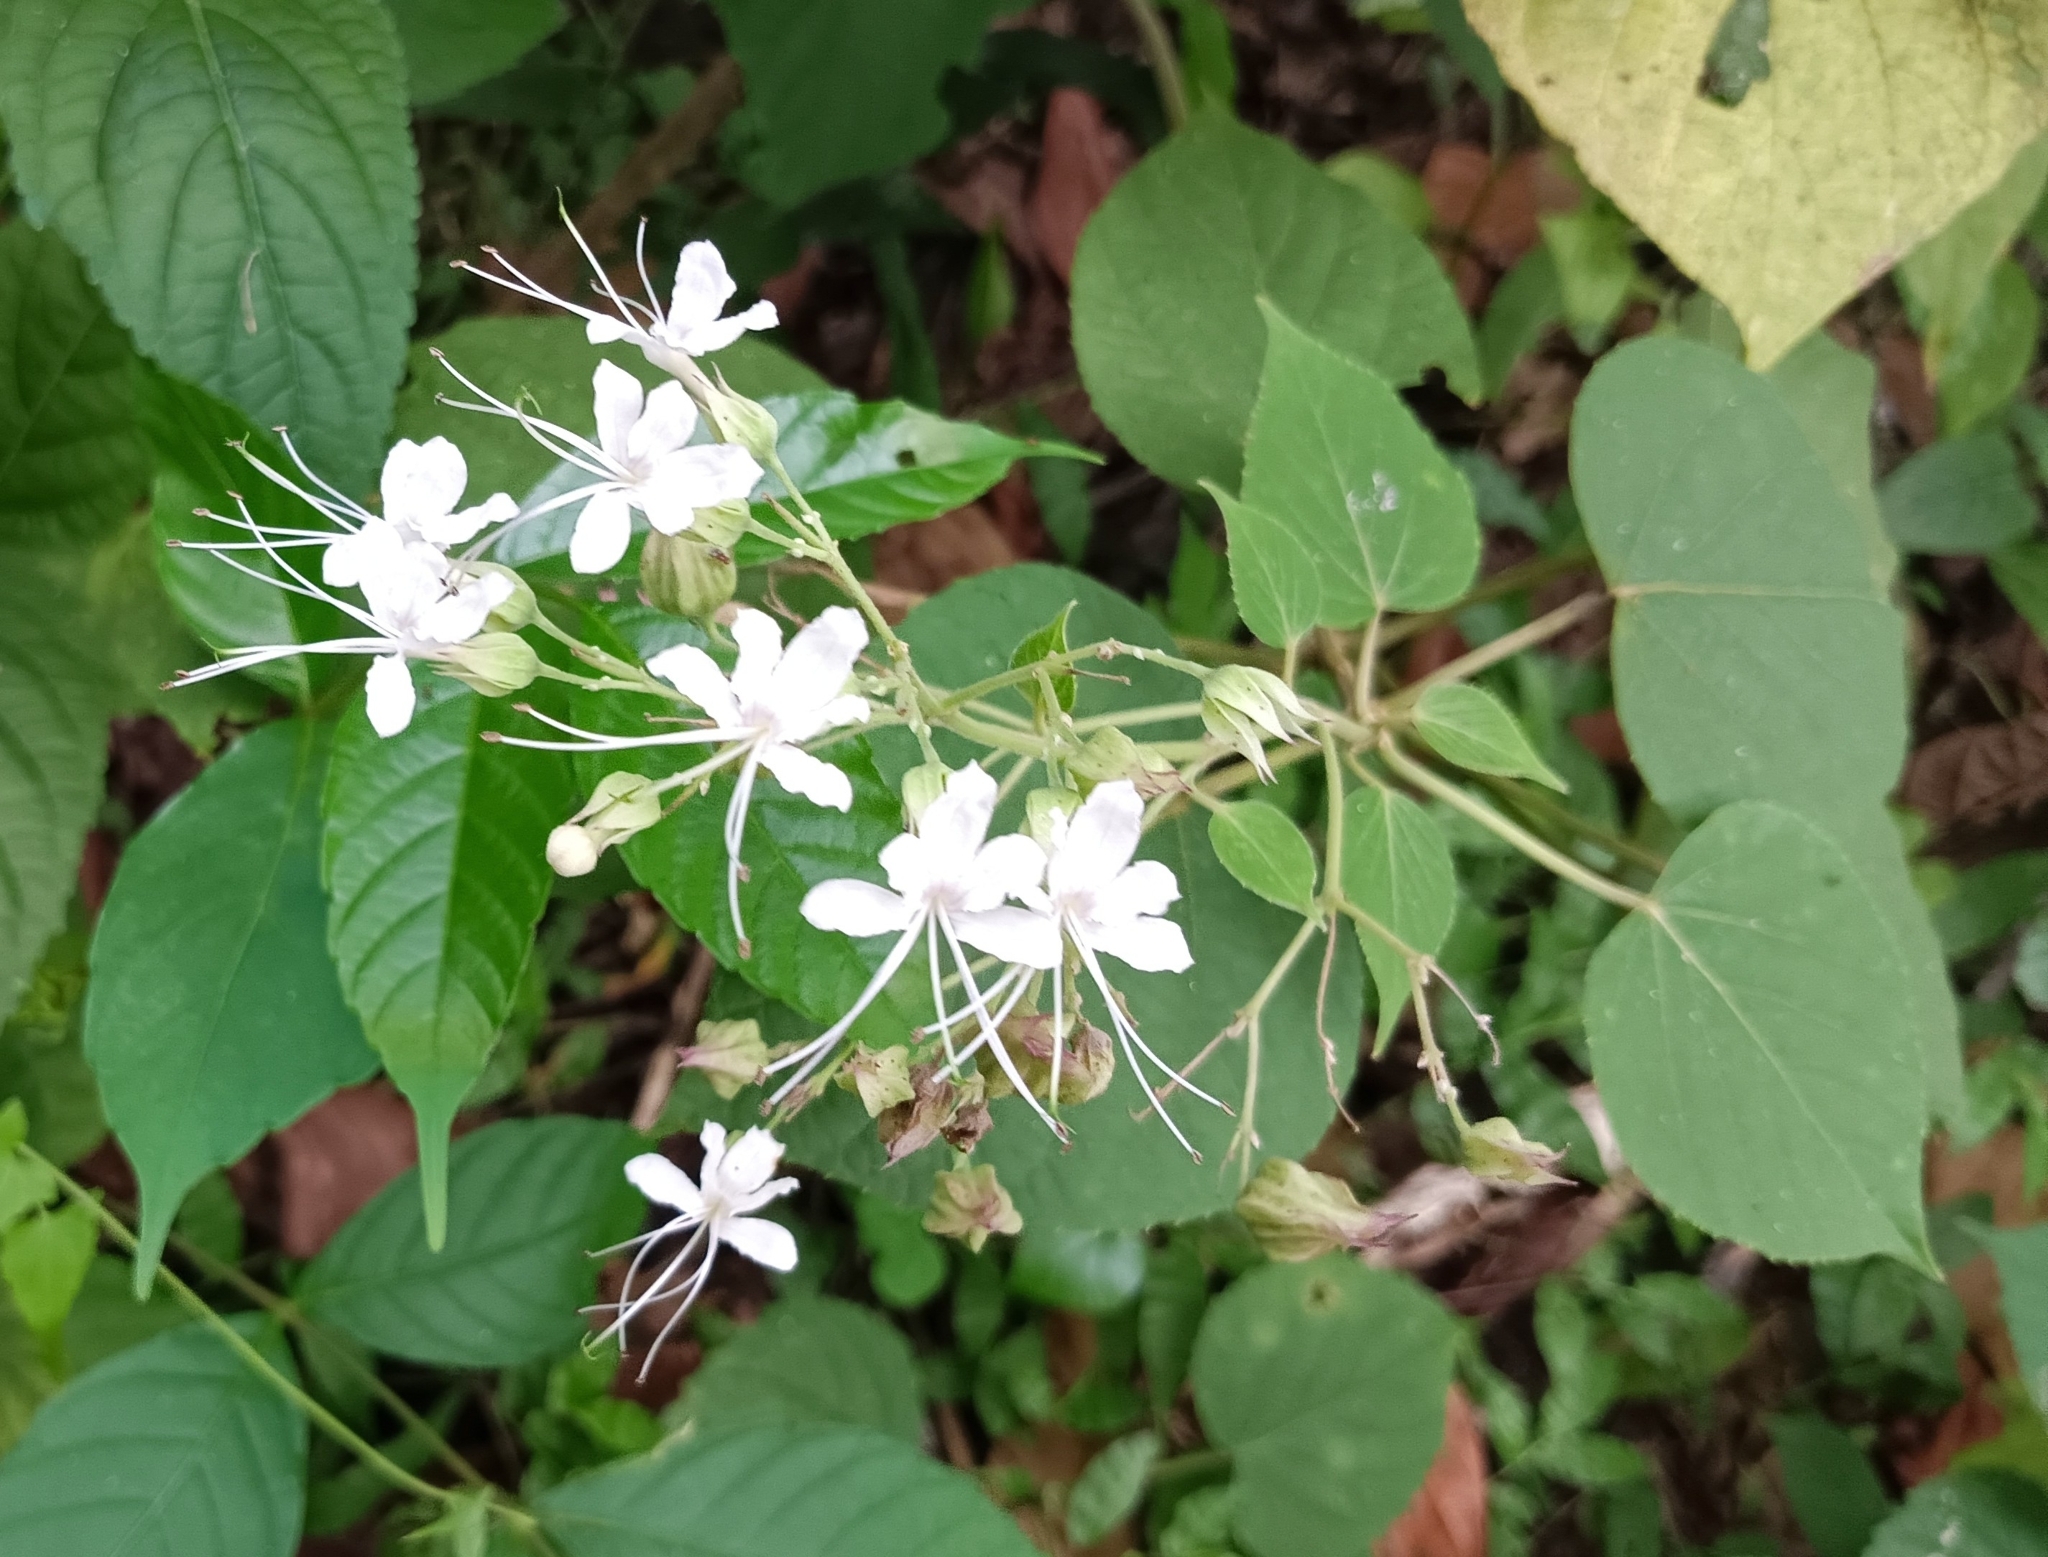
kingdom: Plantae
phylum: Tracheophyta
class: Magnoliopsida
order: Lamiales
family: Lamiaceae
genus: Clerodendrum
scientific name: Clerodendrum infortunatum
